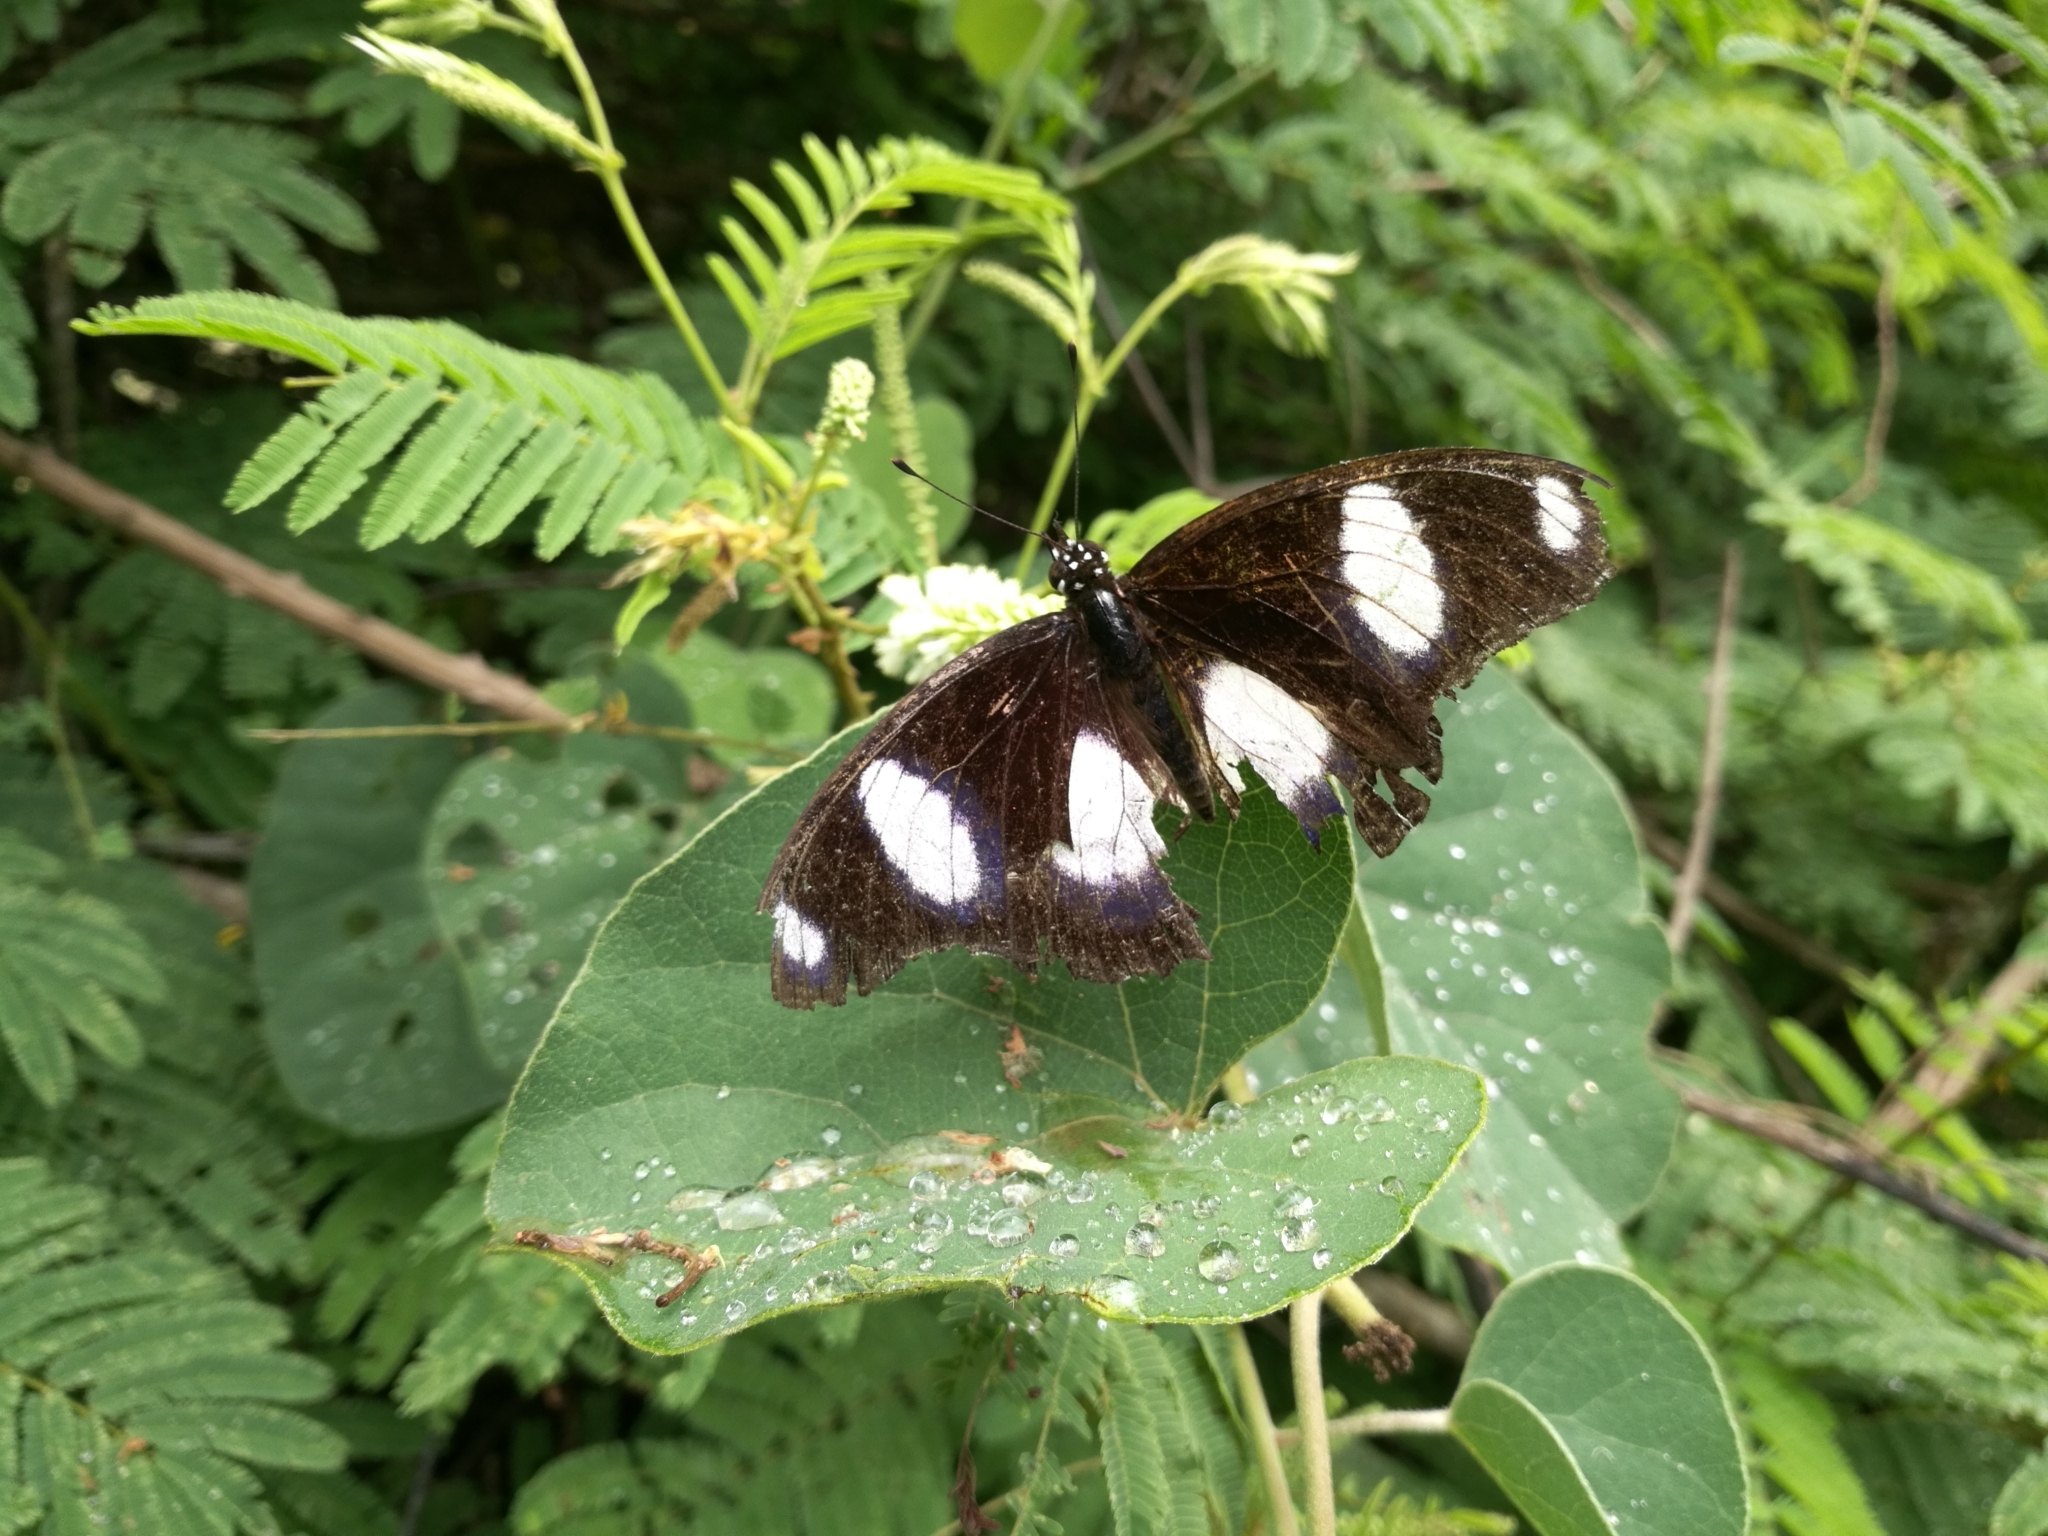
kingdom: Animalia
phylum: Arthropoda
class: Insecta
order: Lepidoptera
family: Nymphalidae
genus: Hypolimnas
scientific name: Hypolimnas misippus
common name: False plain tiger
